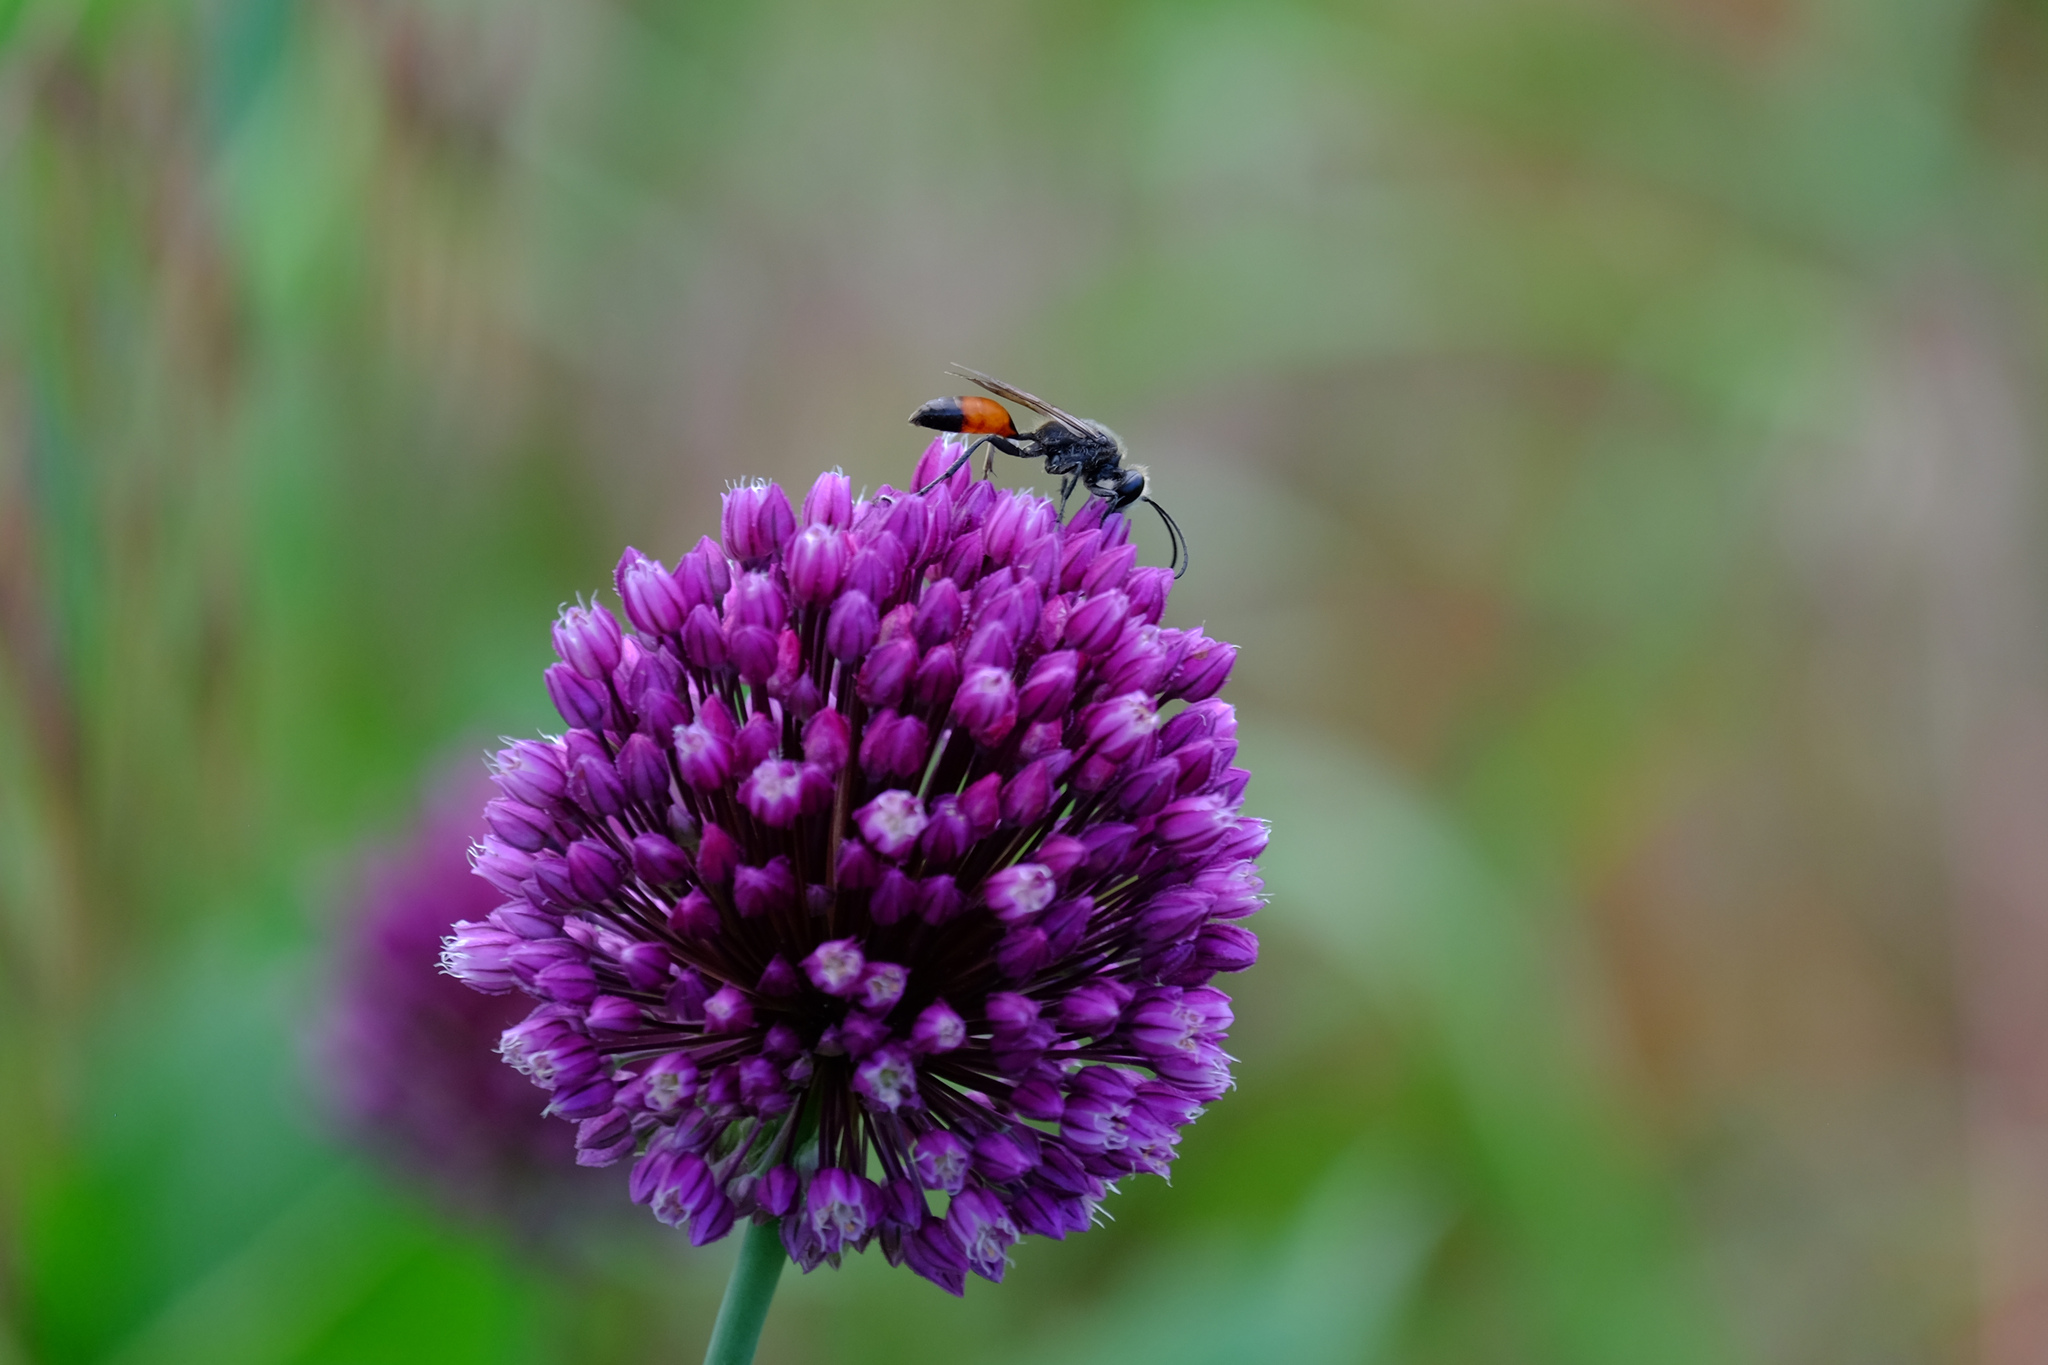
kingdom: Animalia
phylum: Arthropoda
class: Insecta
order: Hymenoptera
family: Sphecidae
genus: Sphex
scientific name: Sphex funerarius
